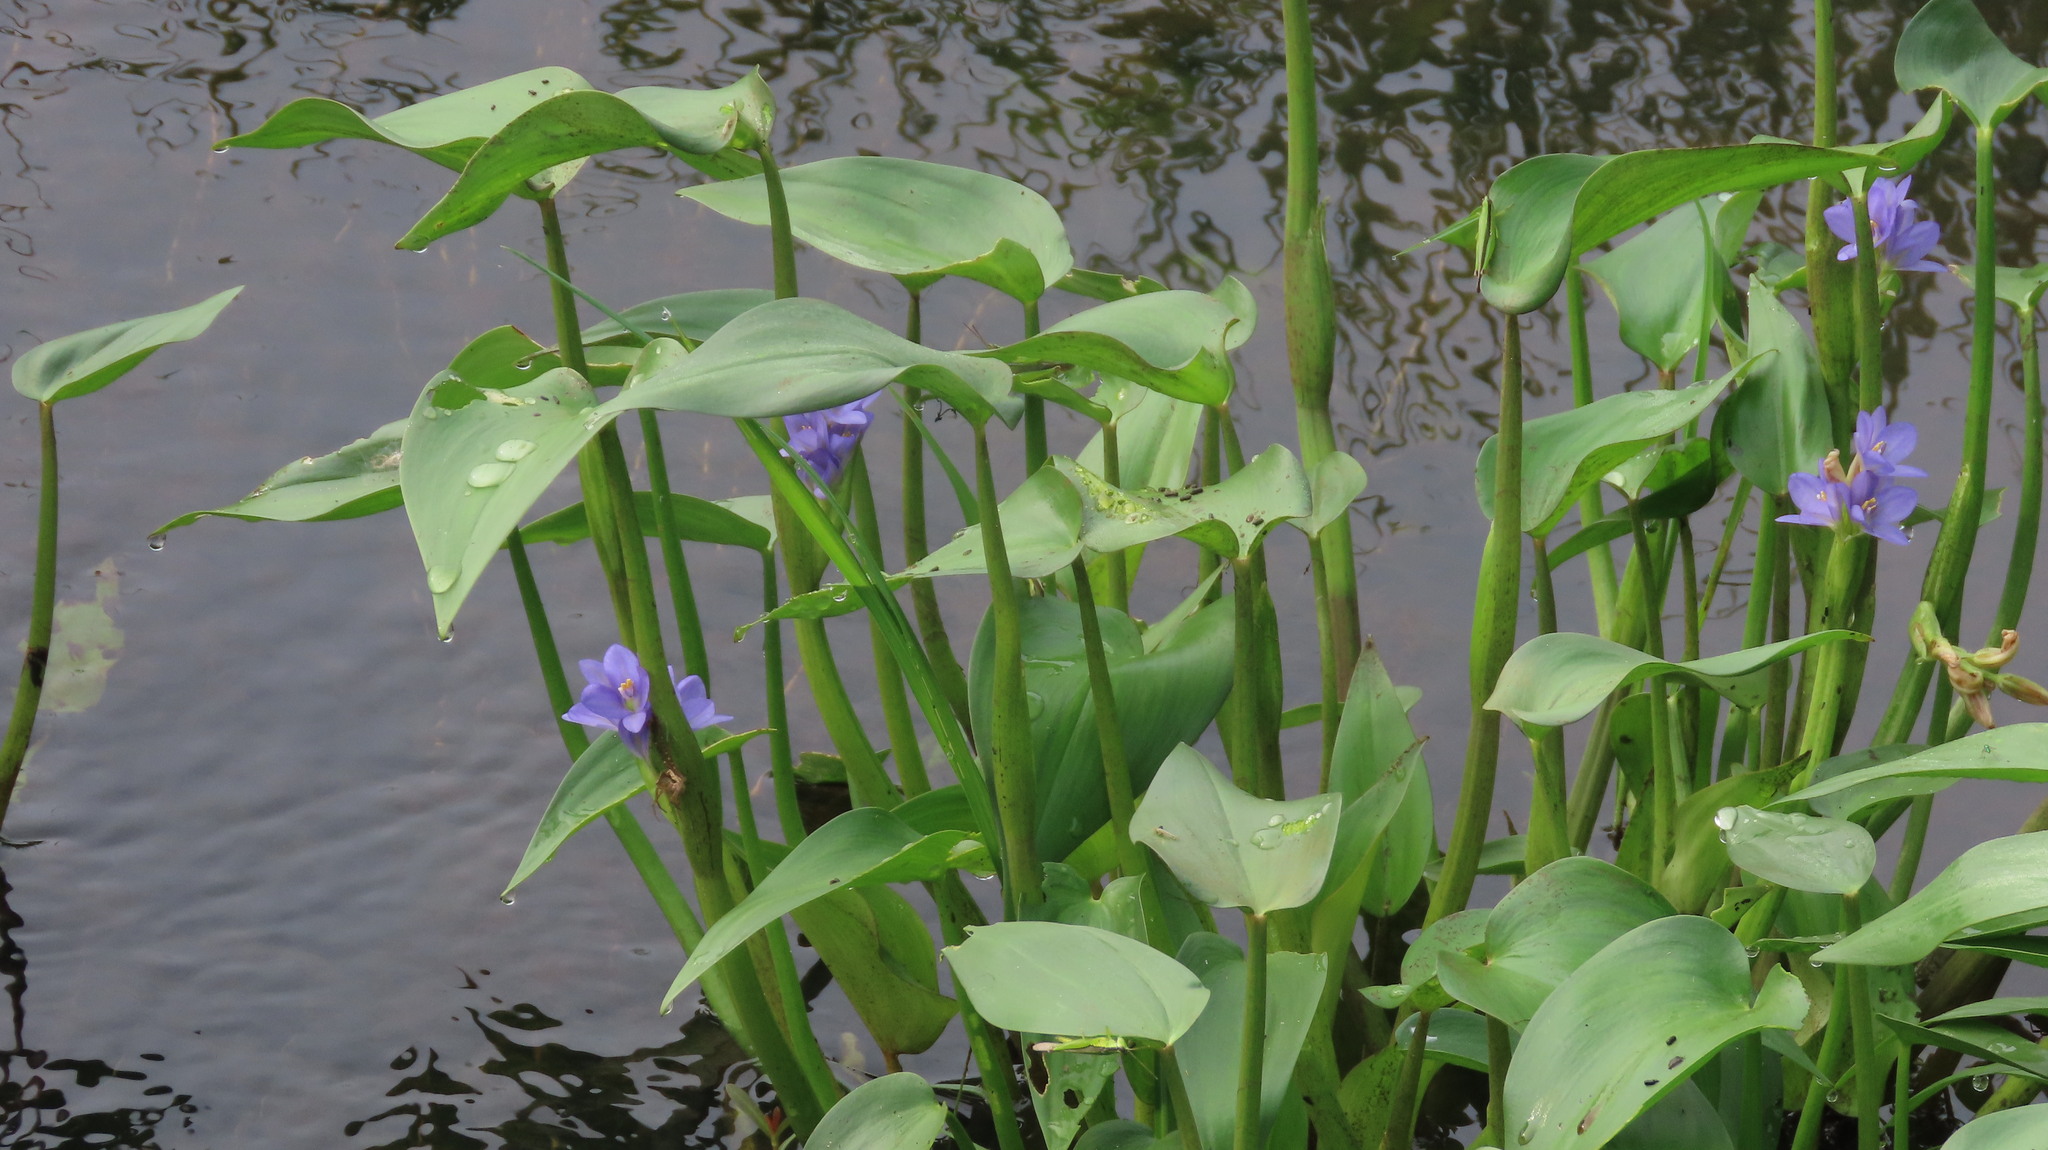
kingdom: Plantae
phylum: Tracheophyta
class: Liliopsida
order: Commelinales
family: Pontederiaceae
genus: Pontederia
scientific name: Pontederia vaginalis
